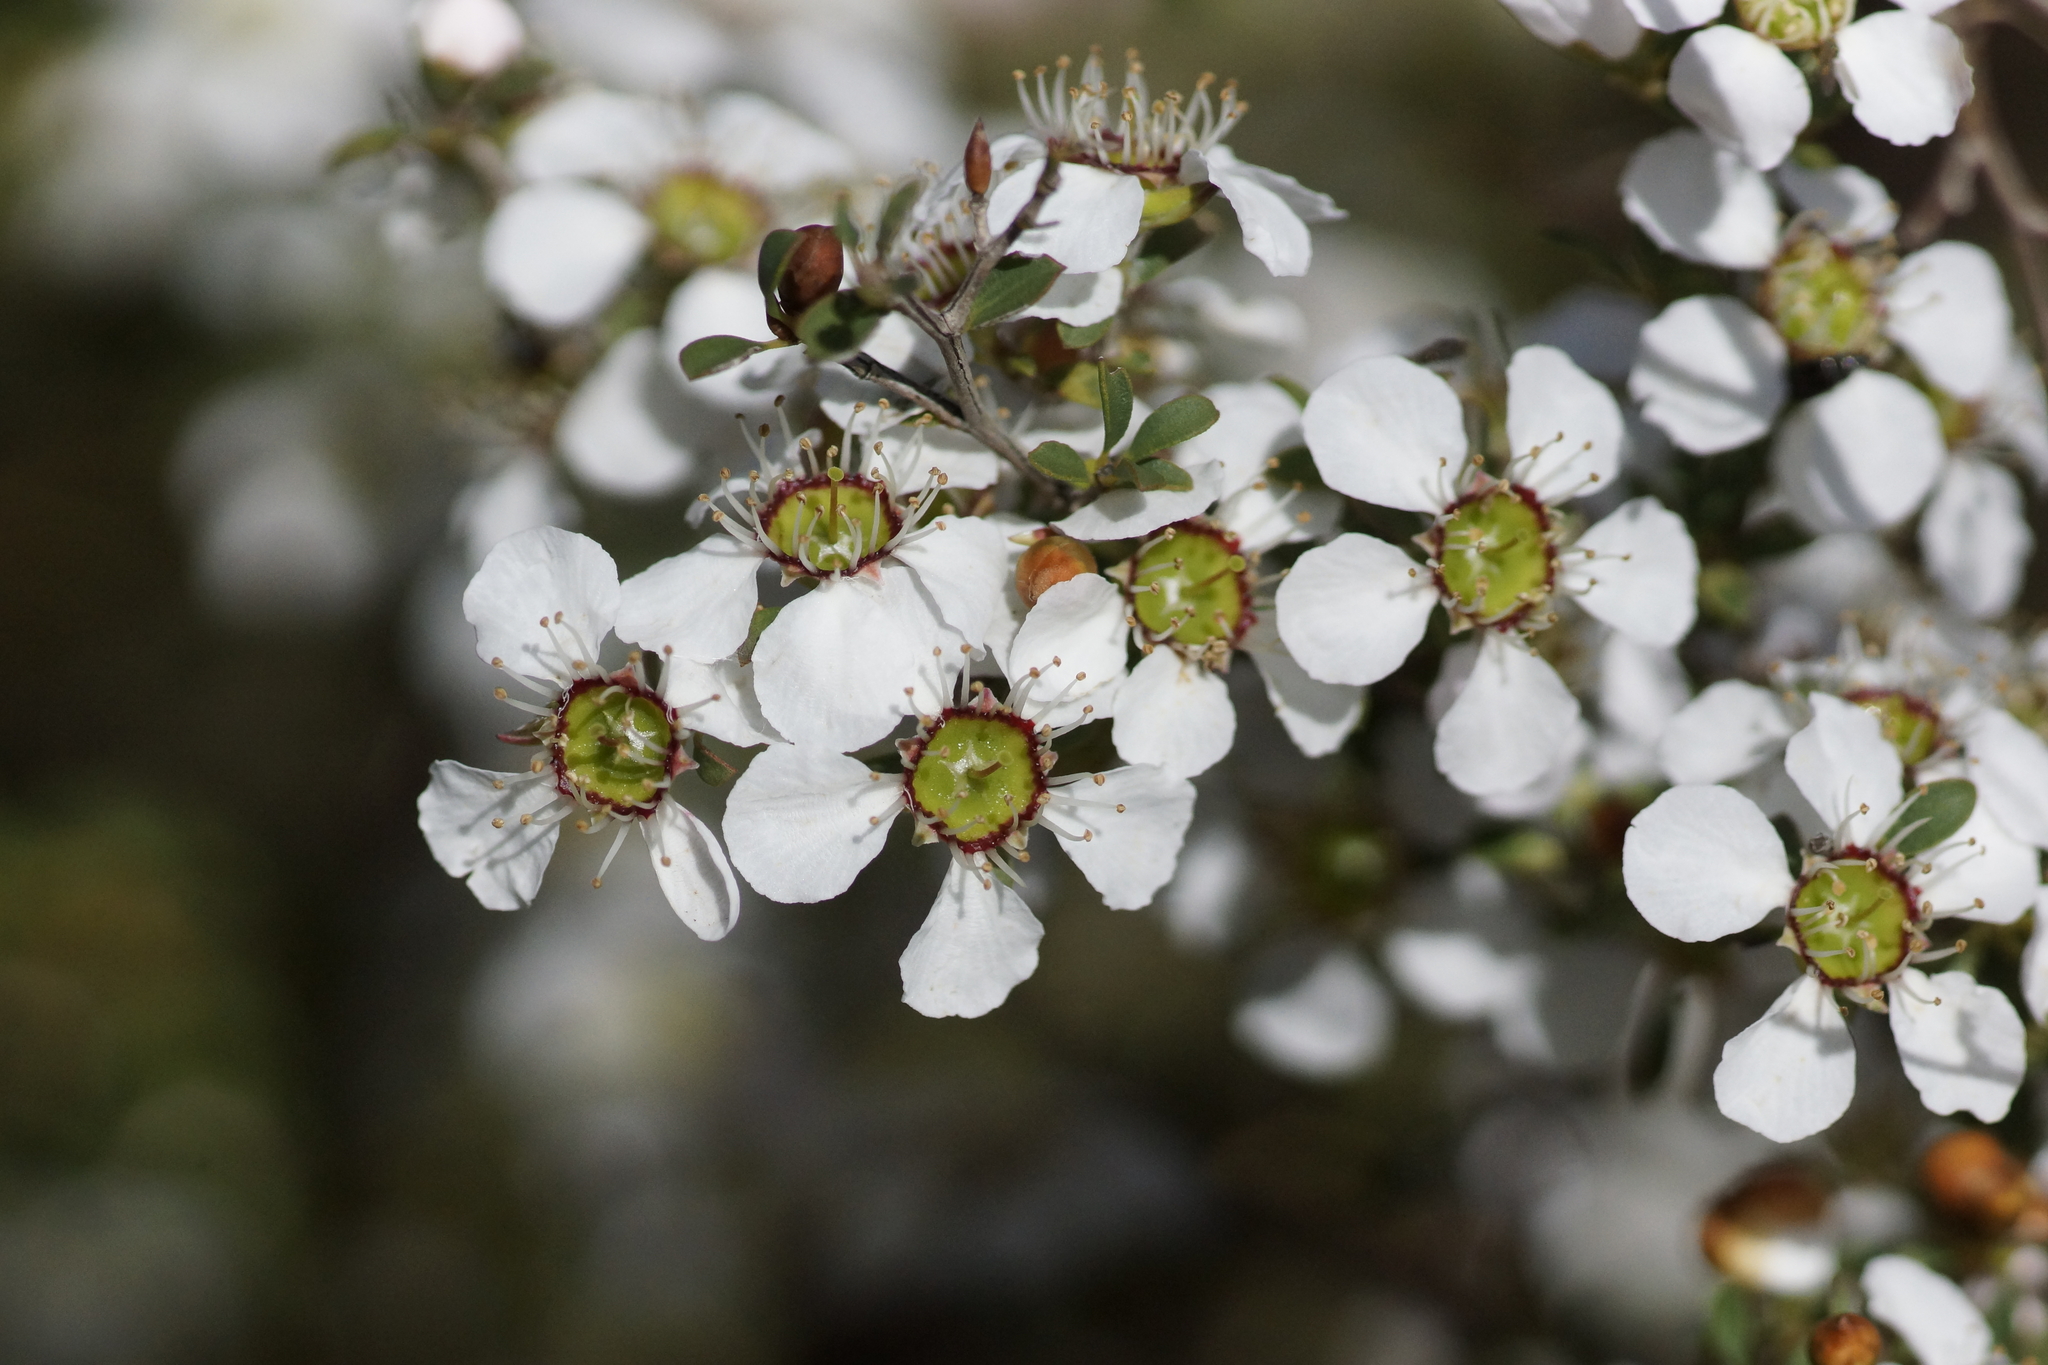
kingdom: Plantae
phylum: Tracheophyta
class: Magnoliopsida
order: Myrtales
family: Myrtaceae
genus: Leptospermum
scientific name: Leptospermum myrsinoides
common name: Heath teatree
